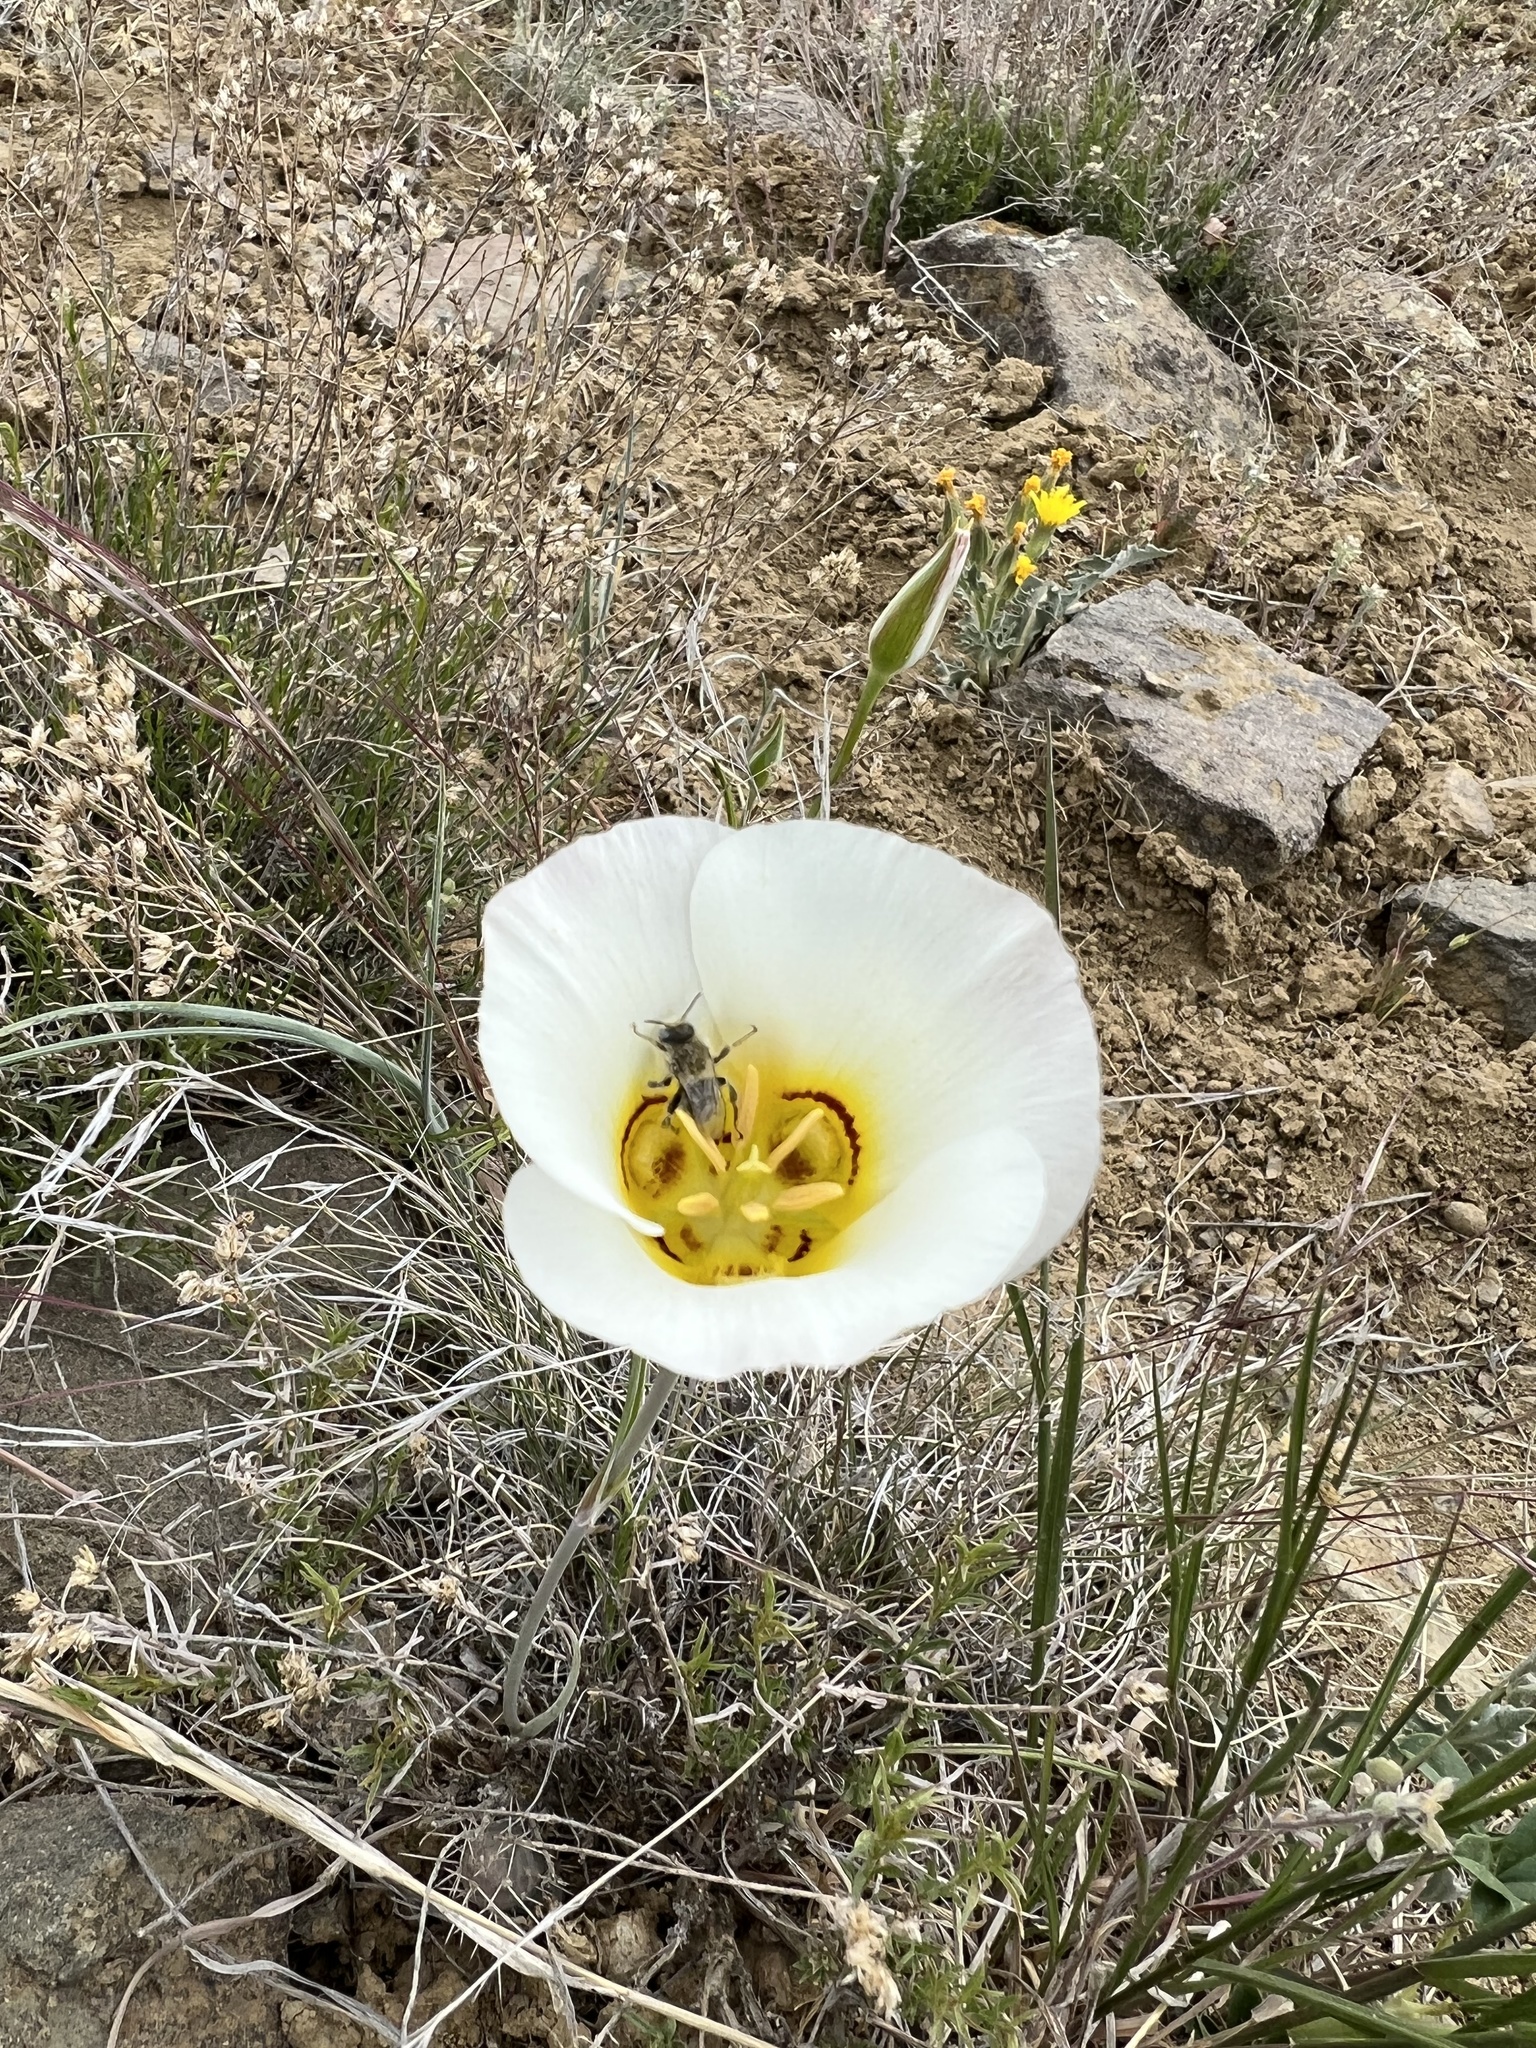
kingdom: Plantae
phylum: Tracheophyta
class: Liliopsida
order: Liliales
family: Liliaceae
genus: Calochortus
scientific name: Calochortus nuttallii
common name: Sego-lily
